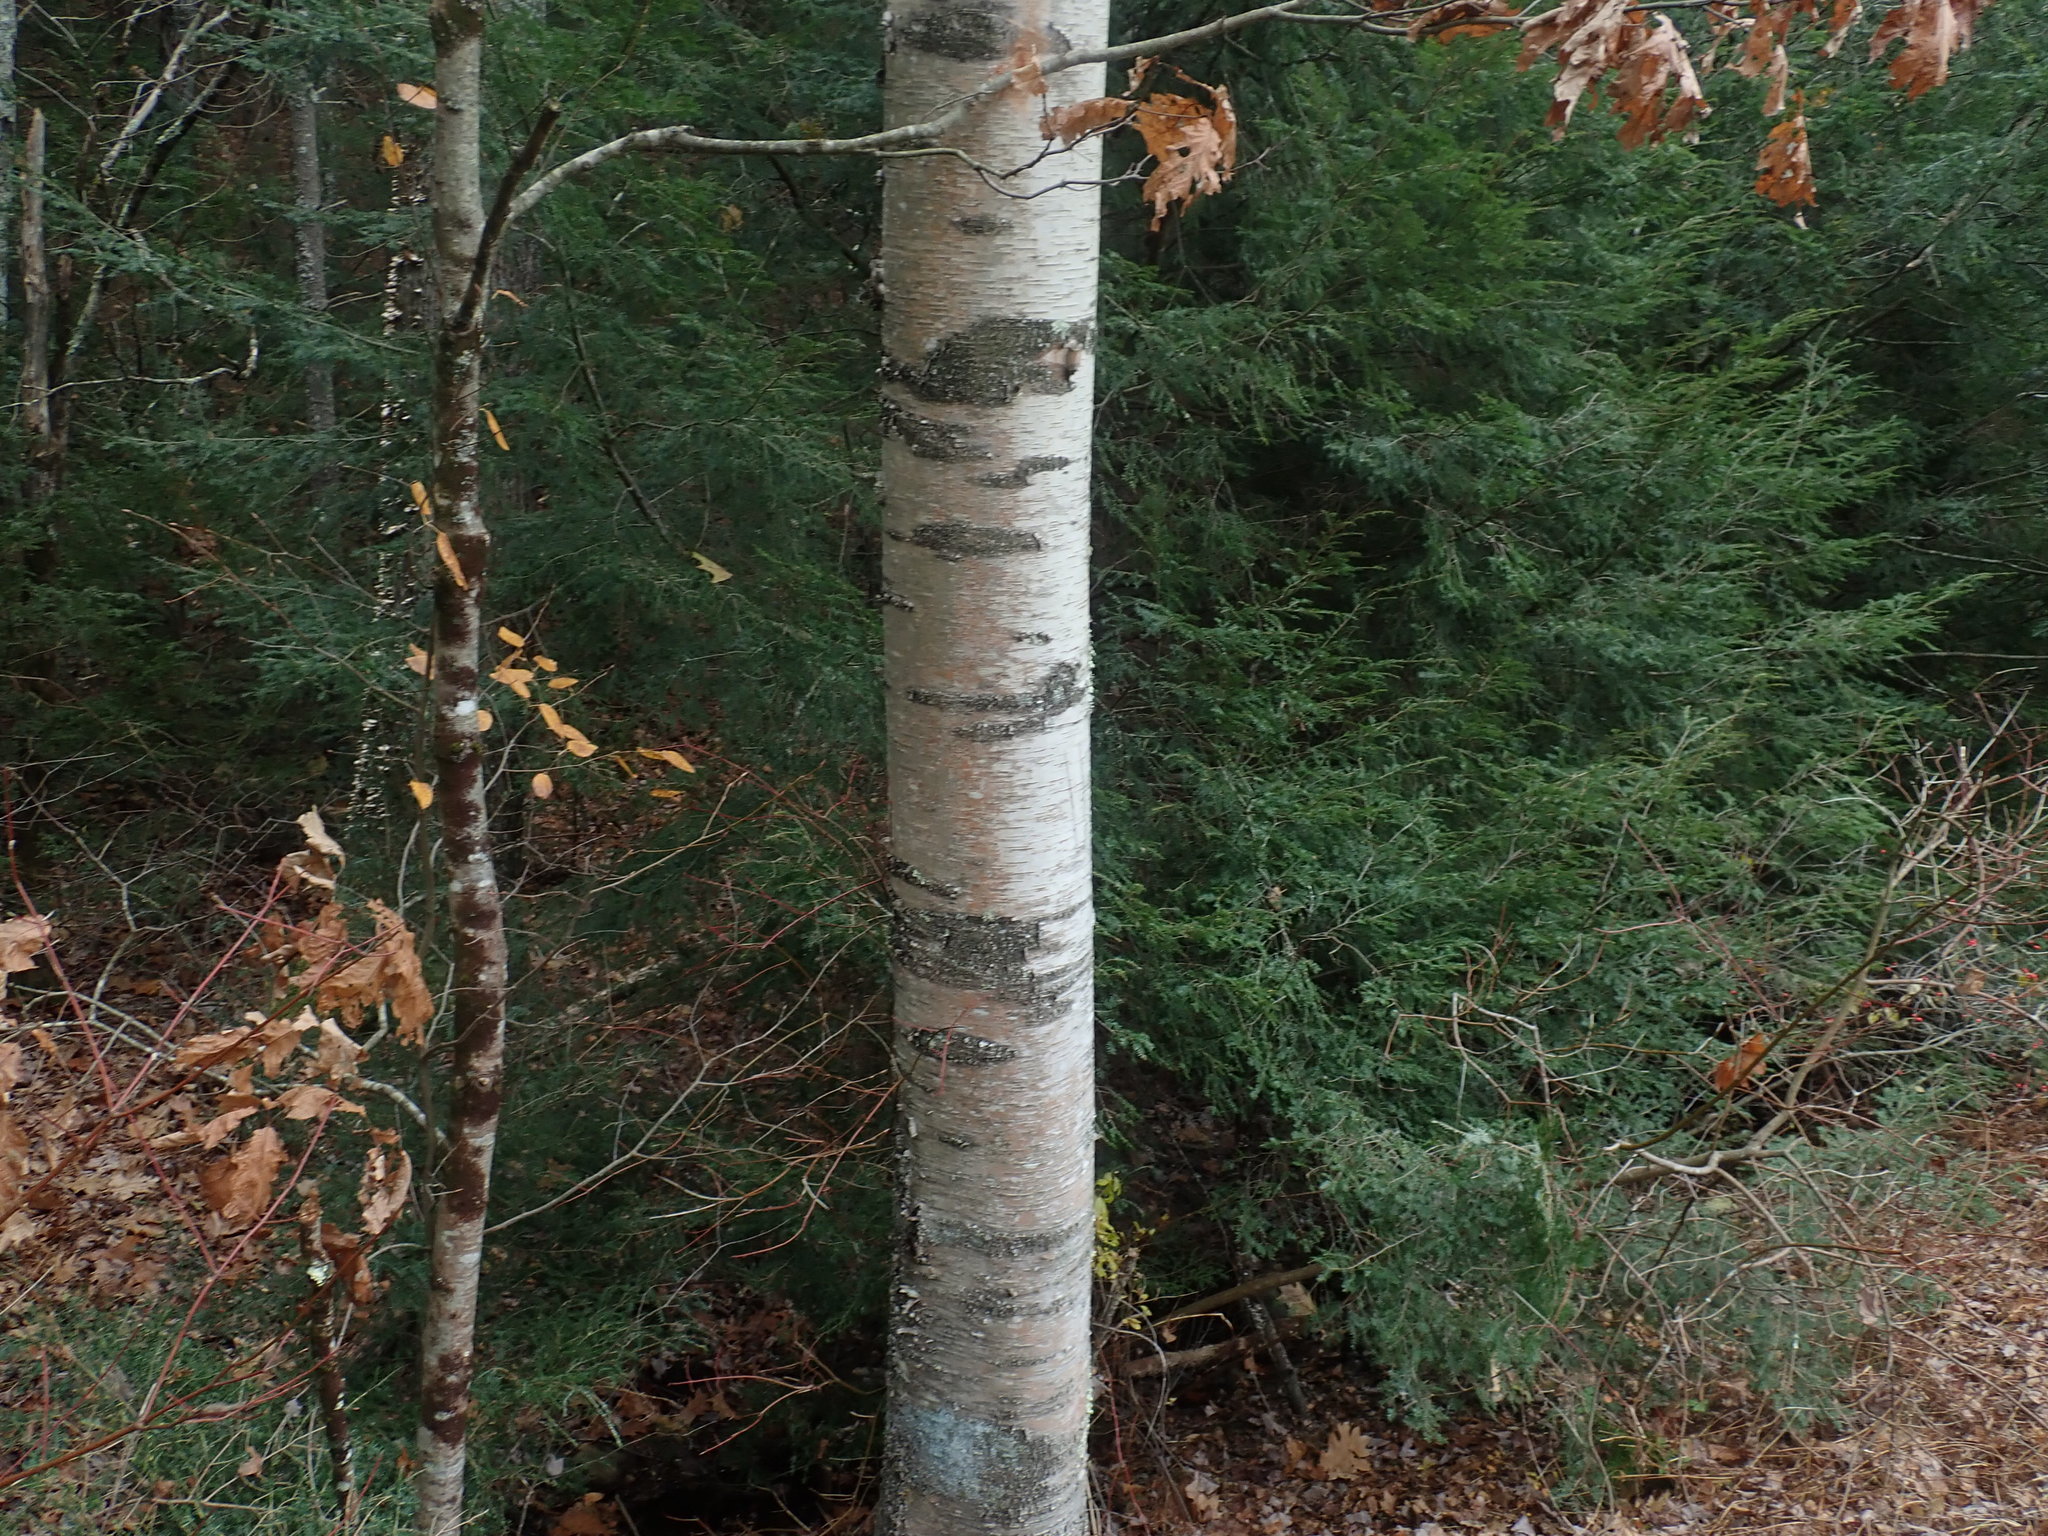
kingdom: Plantae
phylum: Tracheophyta
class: Magnoliopsida
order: Fagales
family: Betulaceae
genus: Betula
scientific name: Betula papyrifera
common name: Paper birch
